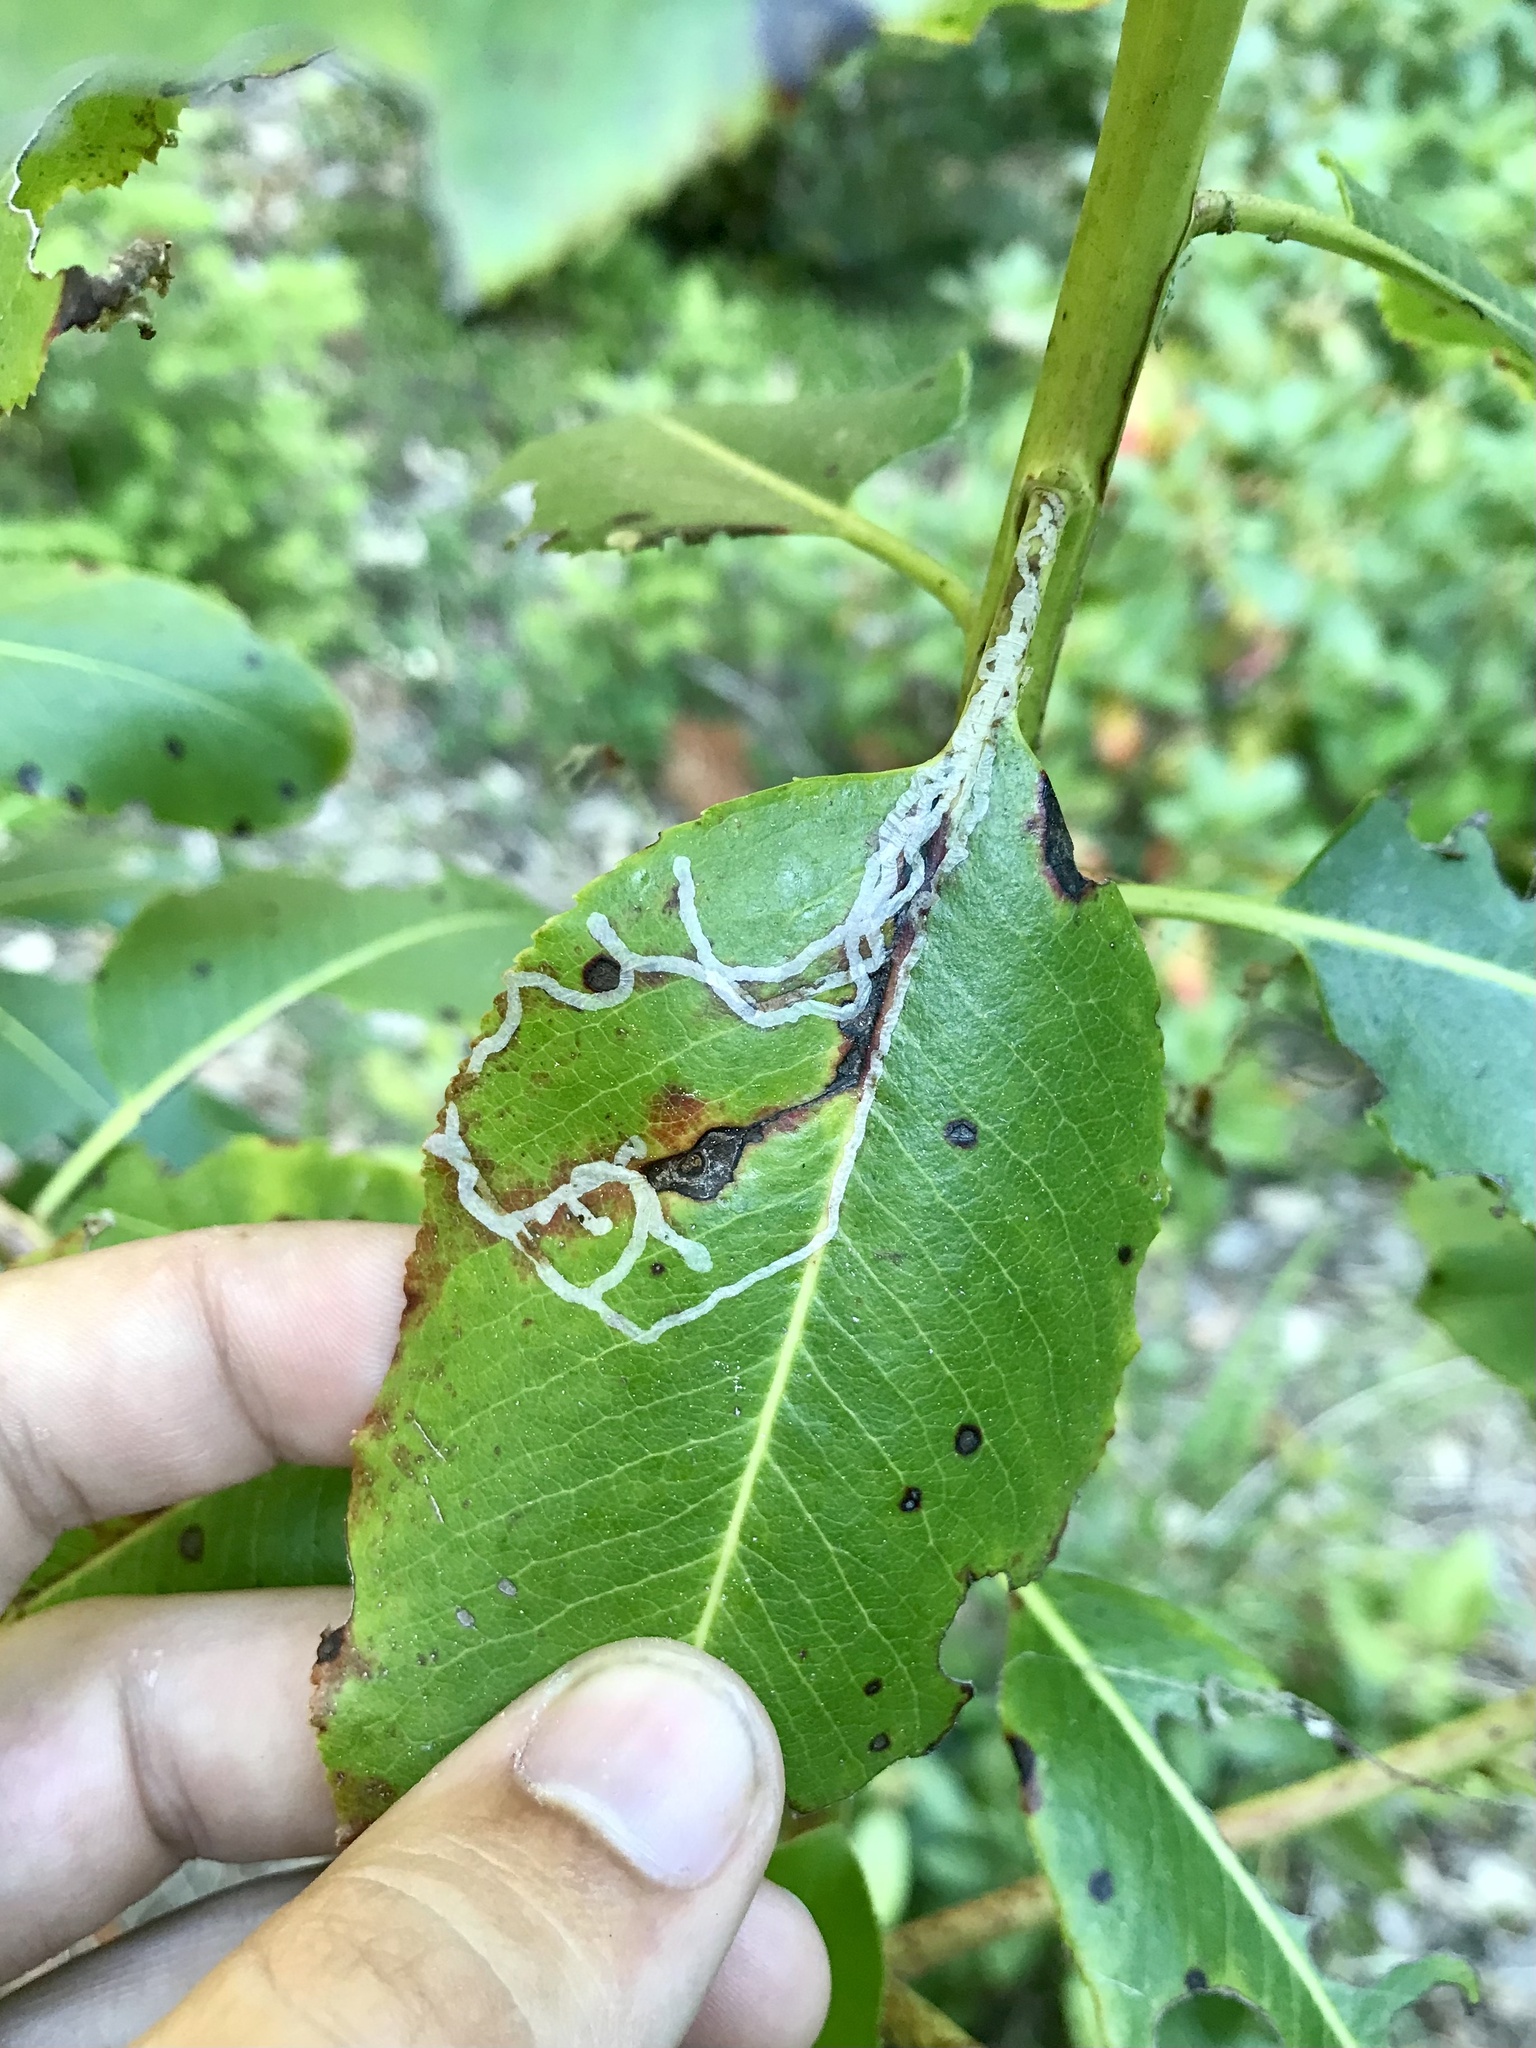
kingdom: Animalia
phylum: Arthropoda
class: Insecta
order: Lepidoptera
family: Gracillariidae
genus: Marmara
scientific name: Marmara arbutiella
